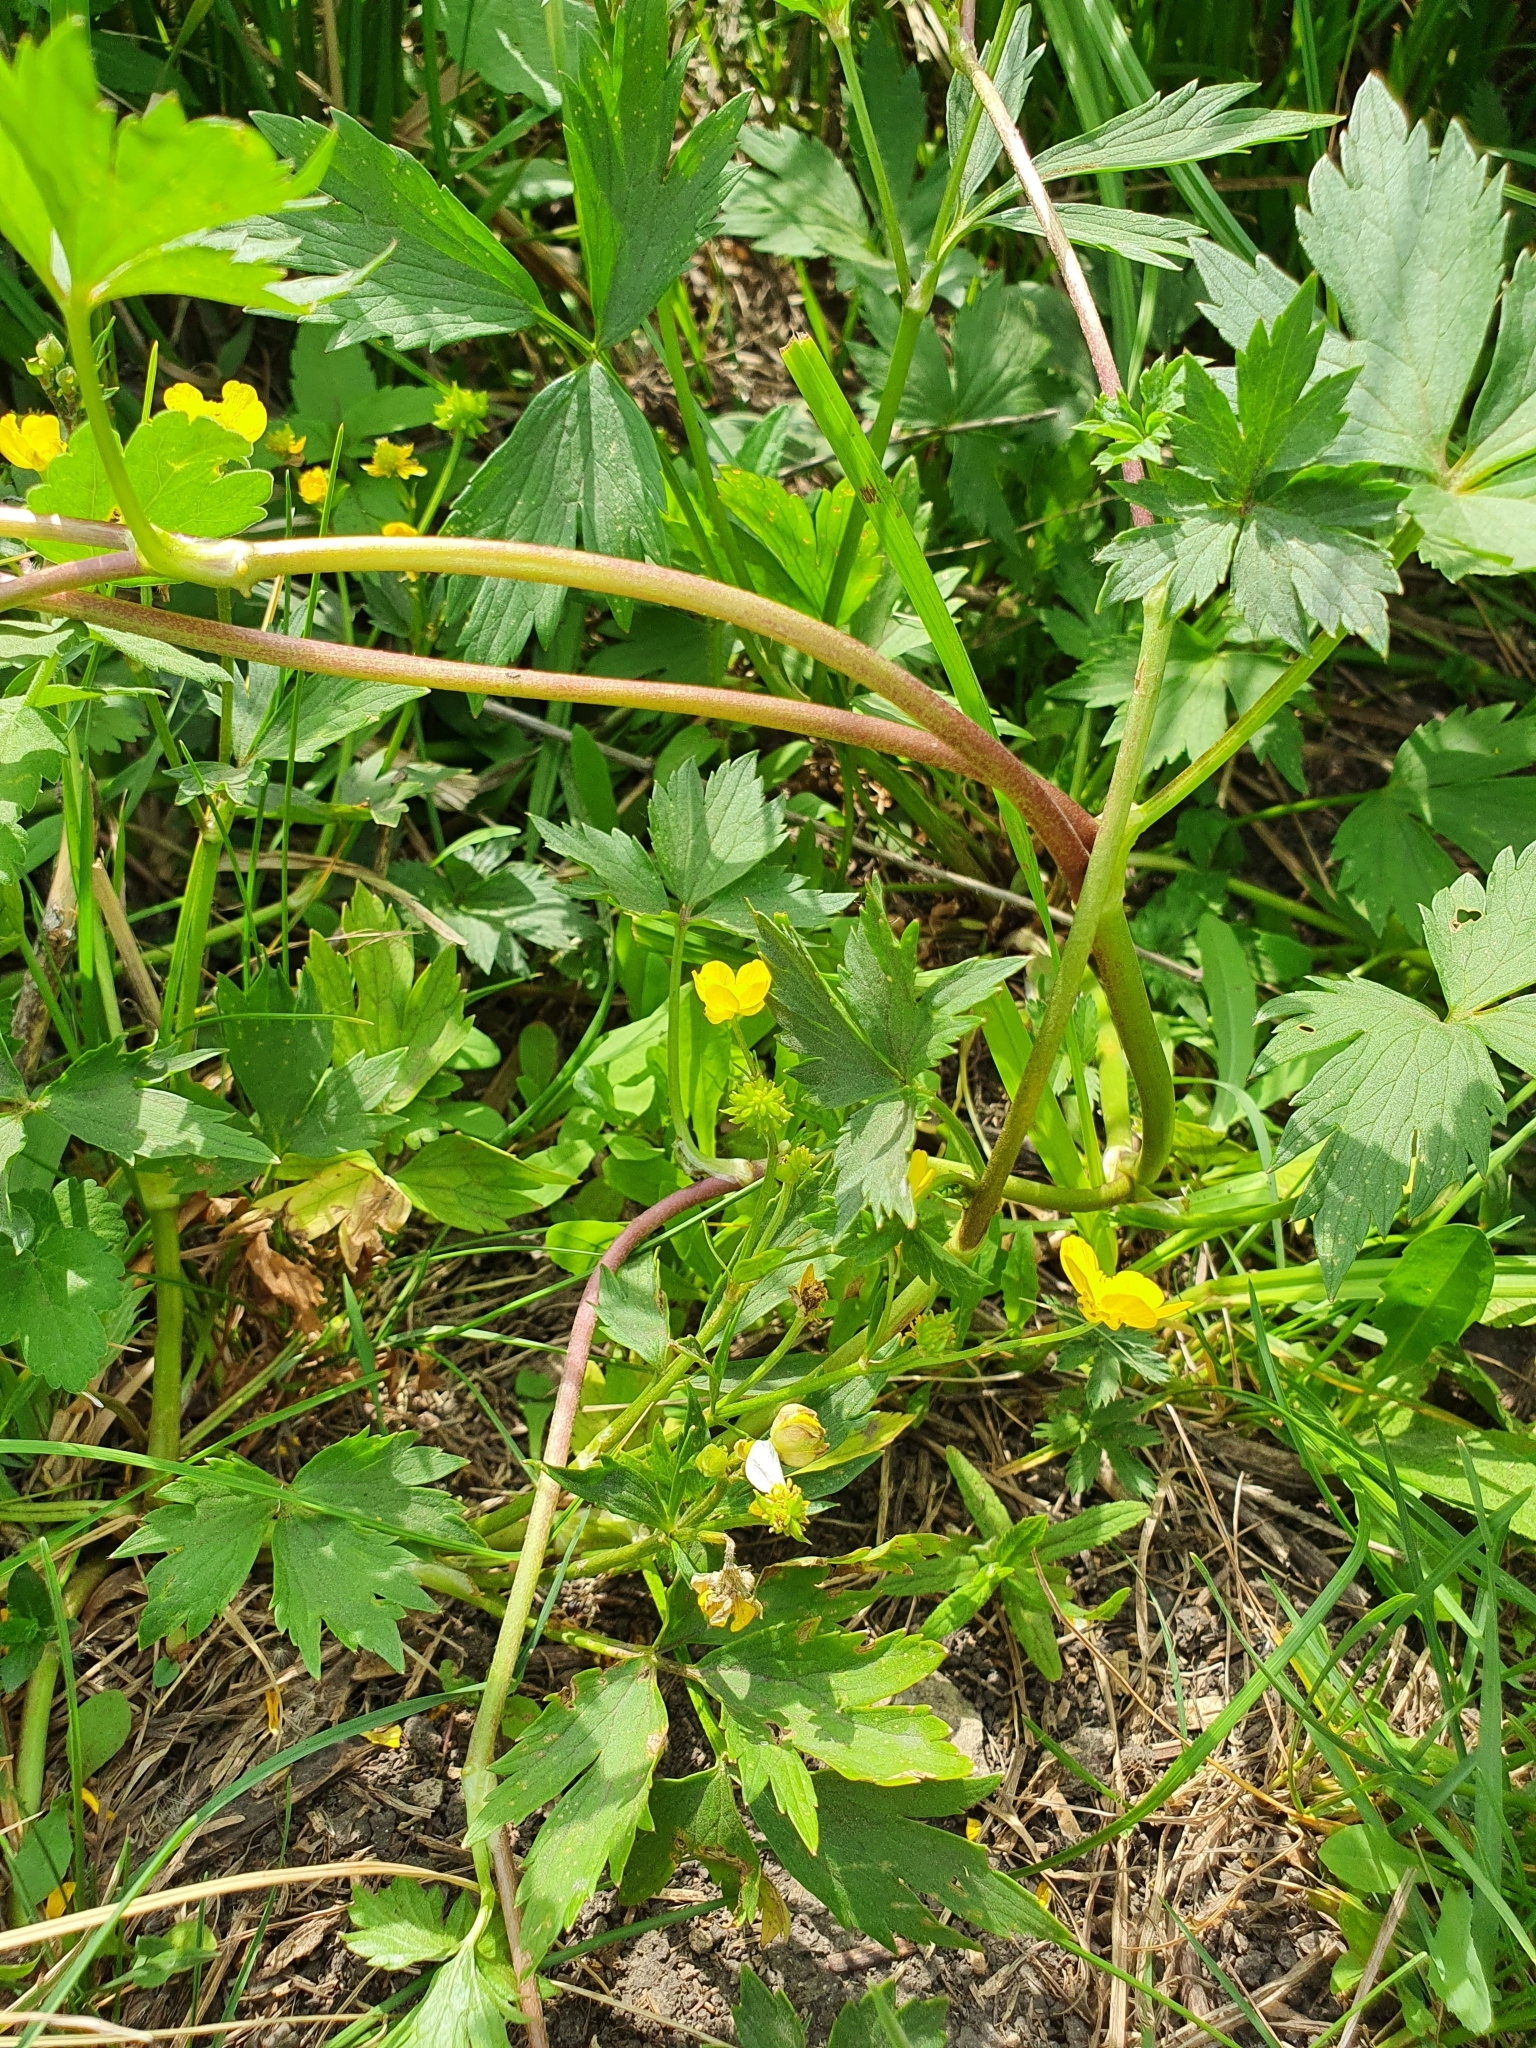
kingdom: Plantae
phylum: Tracheophyta
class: Magnoliopsida
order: Ranunculales
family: Ranunculaceae
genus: Ranunculus
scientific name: Ranunculus repens
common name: Creeping buttercup
